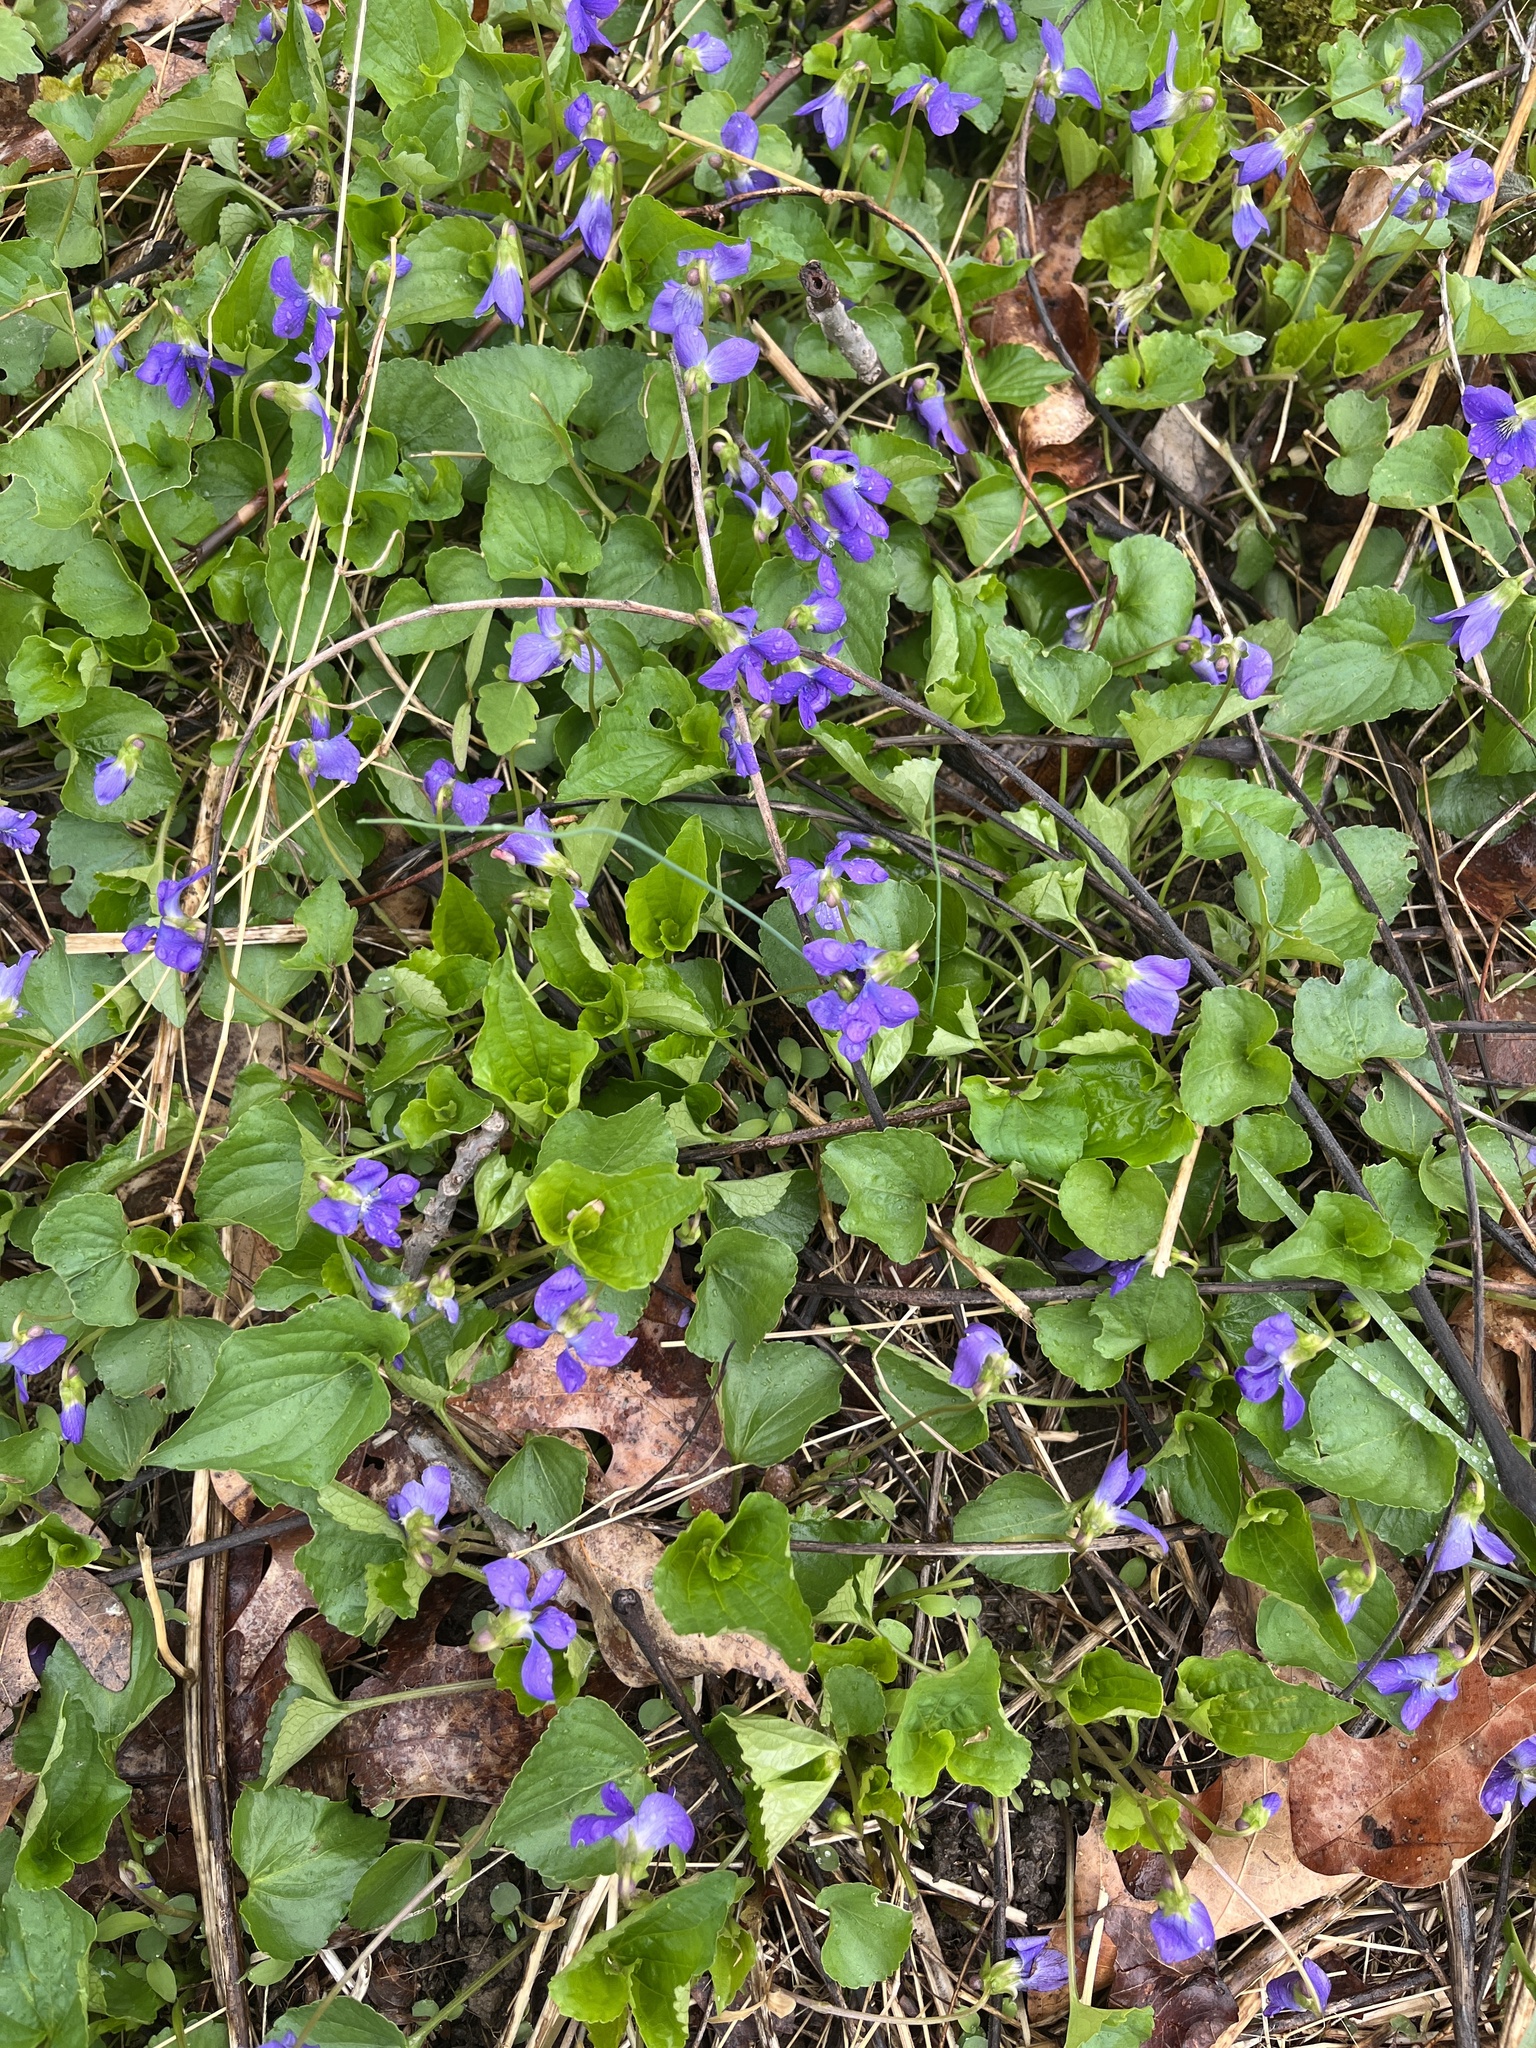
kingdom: Plantae
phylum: Tracheophyta
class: Magnoliopsida
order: Malpighiales
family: Violaceae
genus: Viola
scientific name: Viola sororia
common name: Dooryard violet
